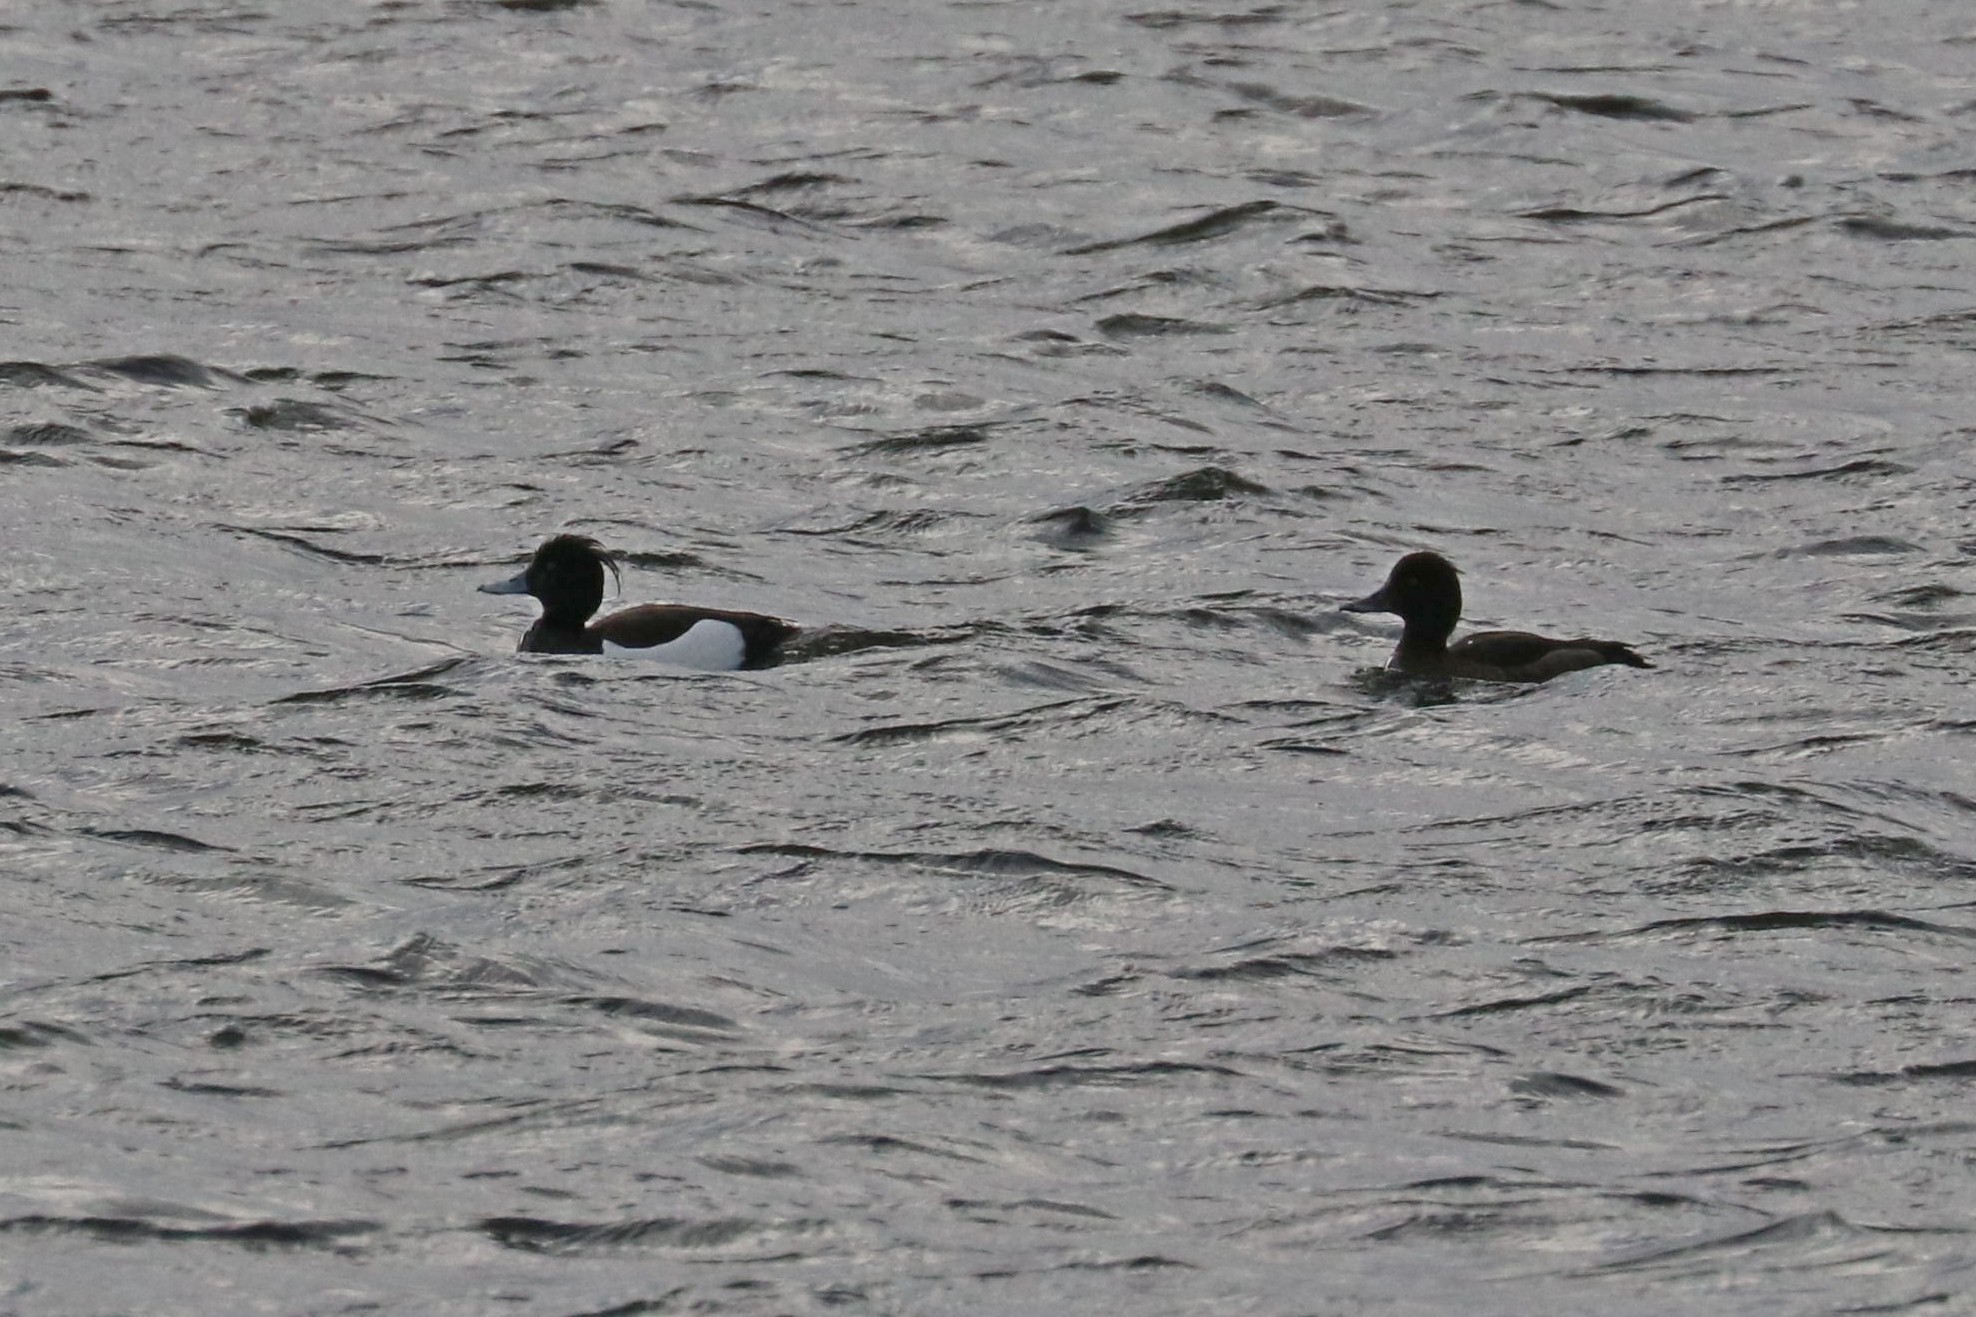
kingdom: Animalia
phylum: Chordata
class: Aves
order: Anseriformes
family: Anatidae
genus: Aythya
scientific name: Aythya fuligula
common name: Tufted duck
